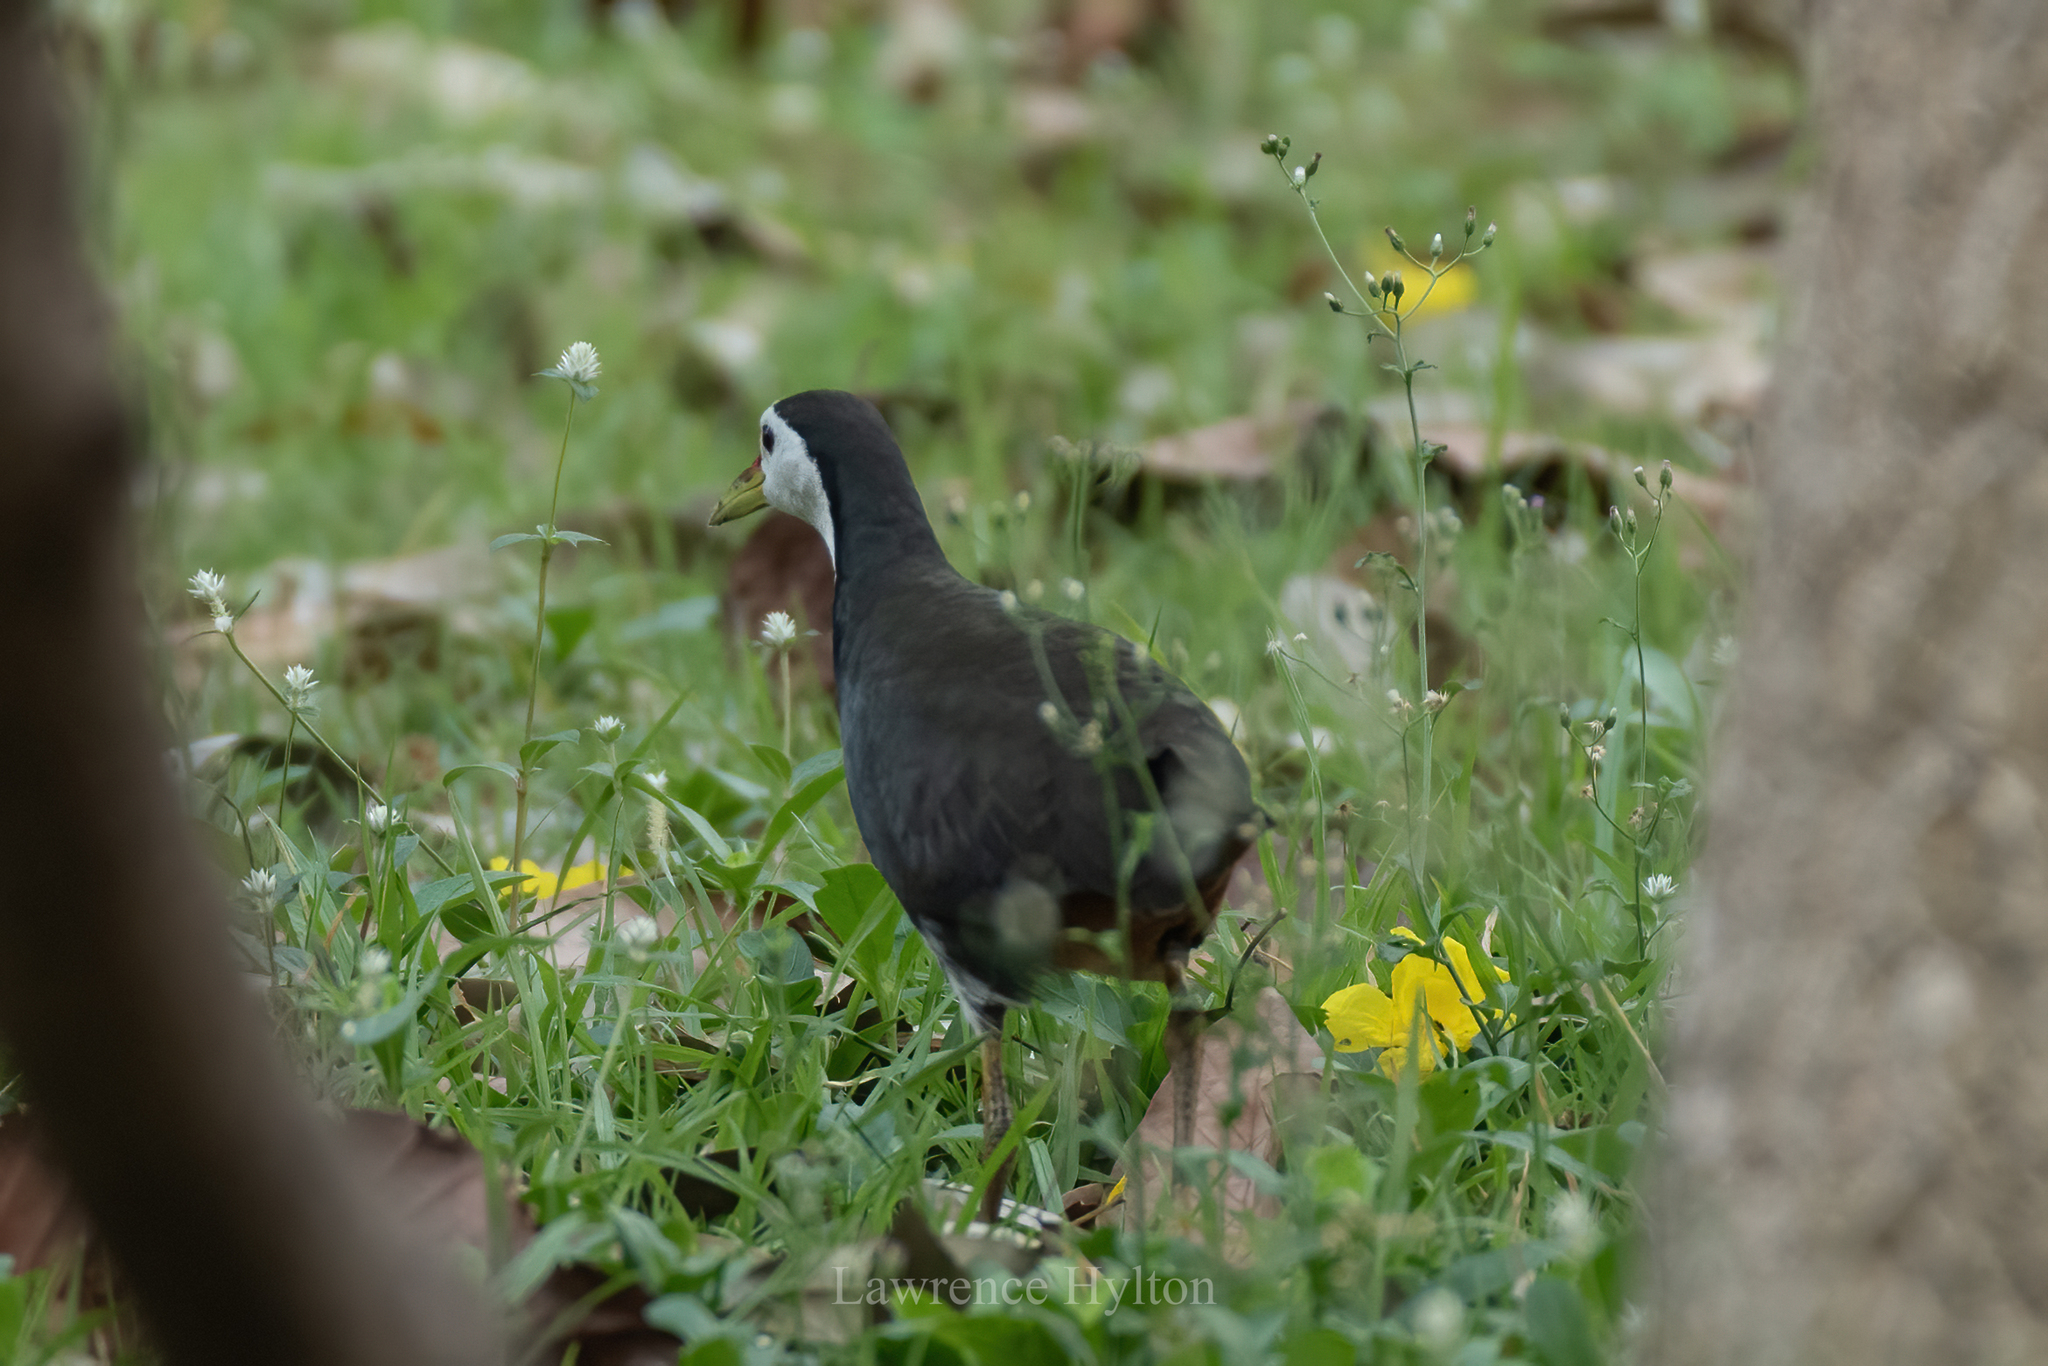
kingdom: Animalia
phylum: Chordata
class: Aves
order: Gruiformes
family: Rallidae
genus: Amaurornis
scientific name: Amaurornis phoenicurus
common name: White-breasted waterhen
